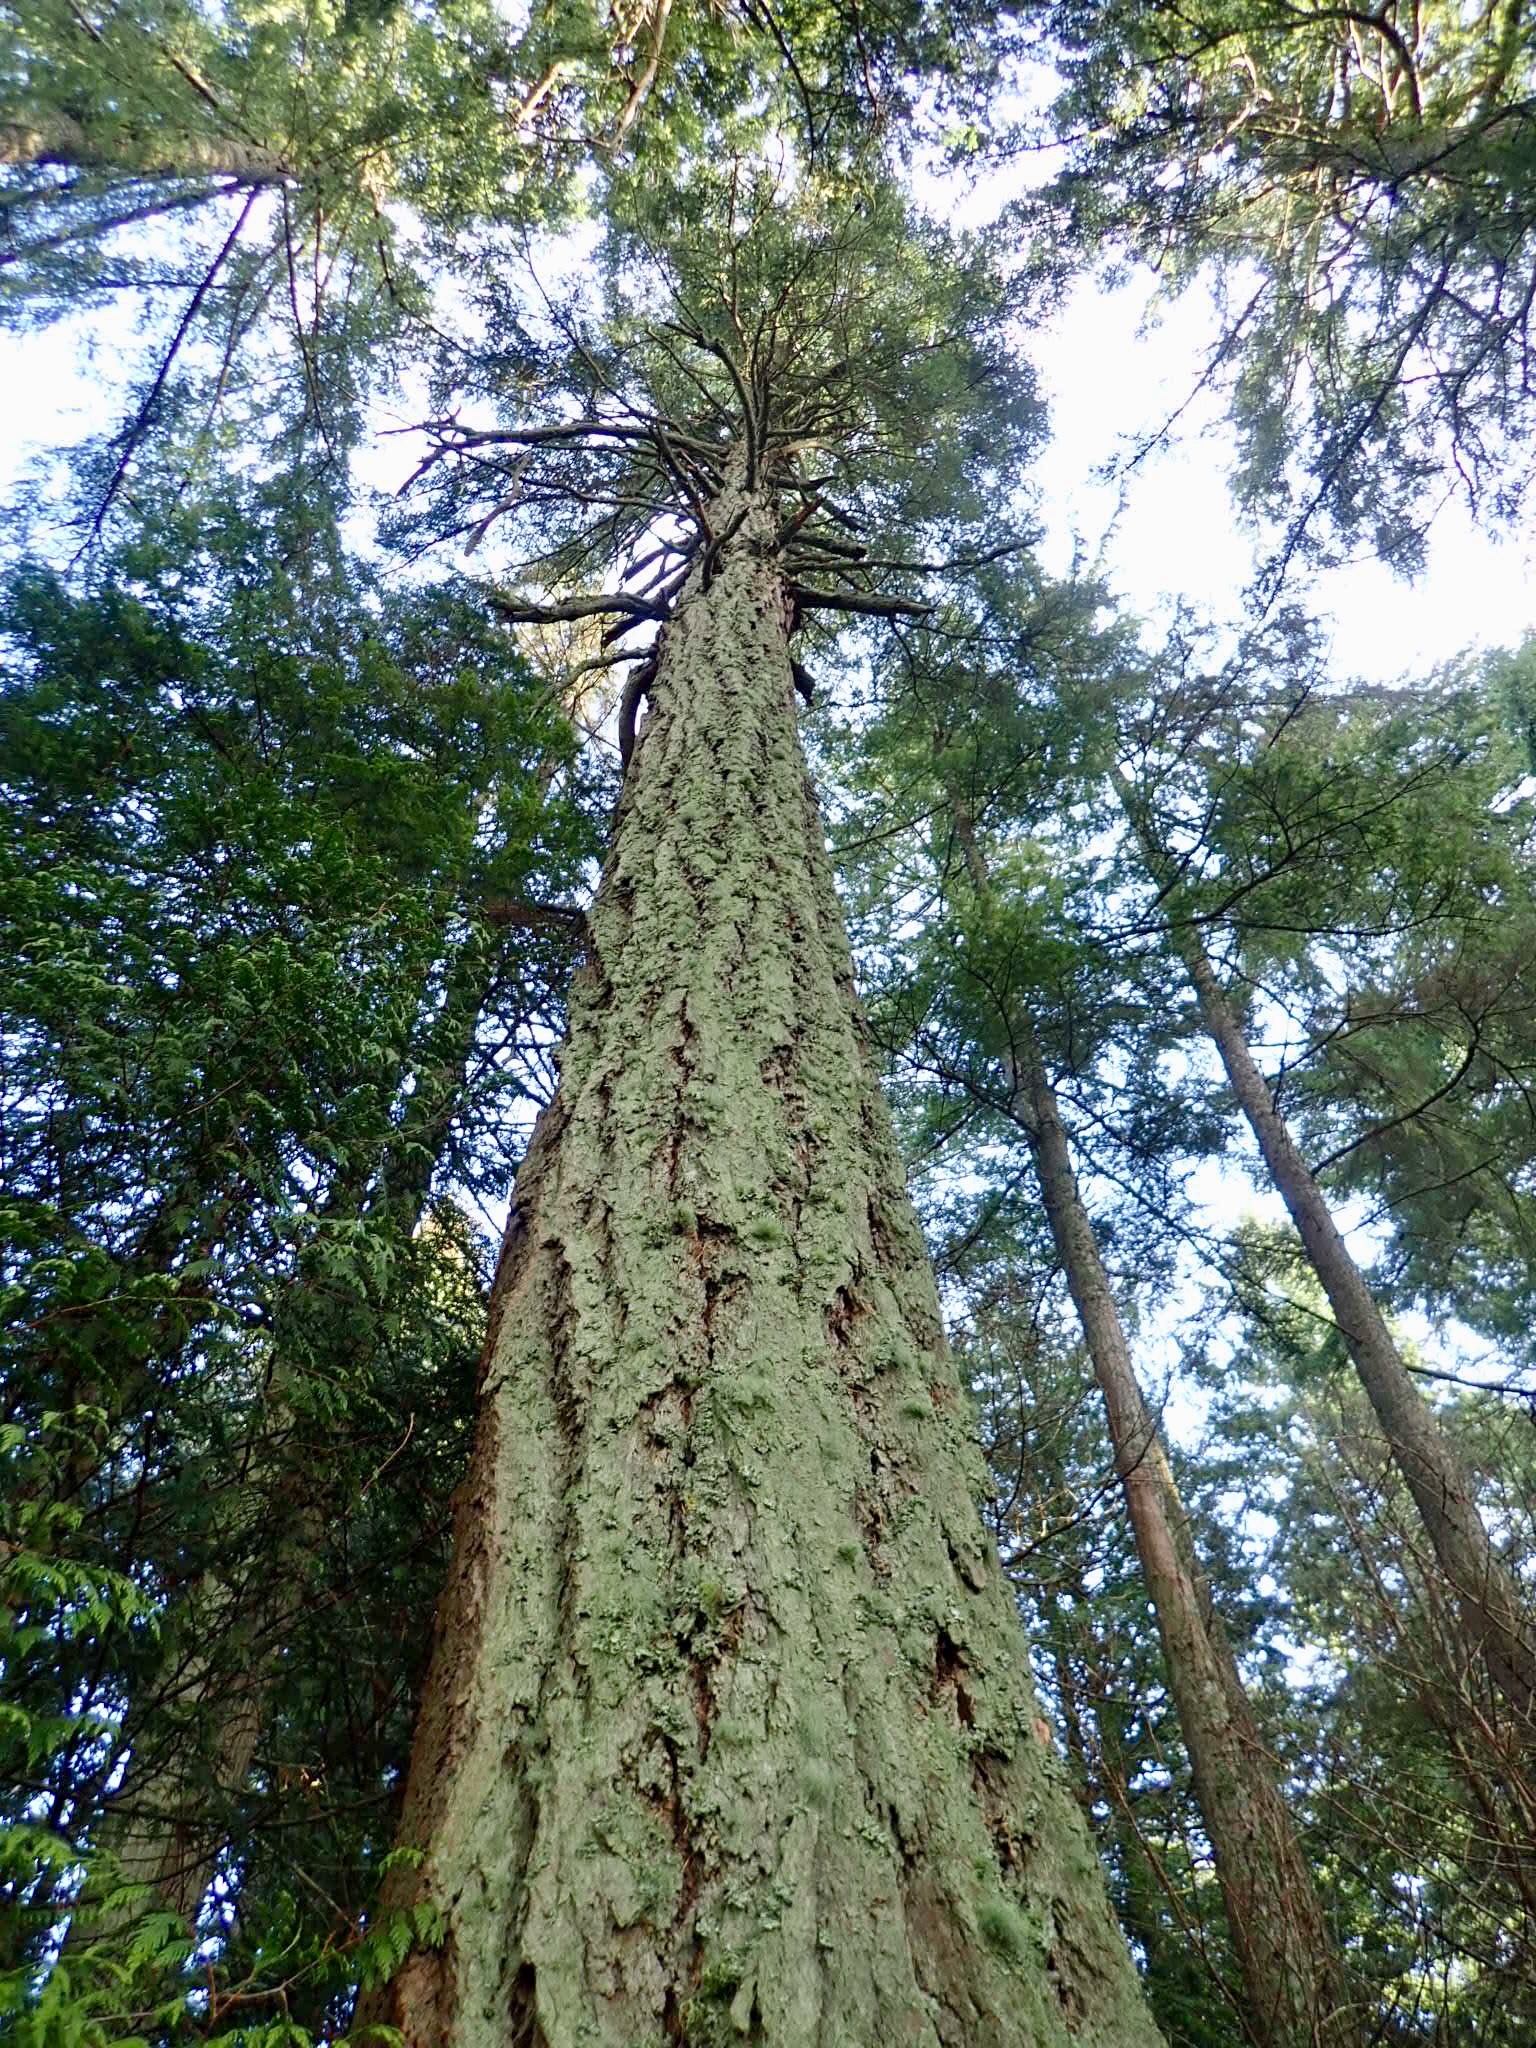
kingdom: Plantae
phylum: Tracheophyta
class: Pinopsida
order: Pinales
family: Pinaceae
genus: Pseudotsuga
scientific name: Pseudotsuga menziesii
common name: Douglas fir
